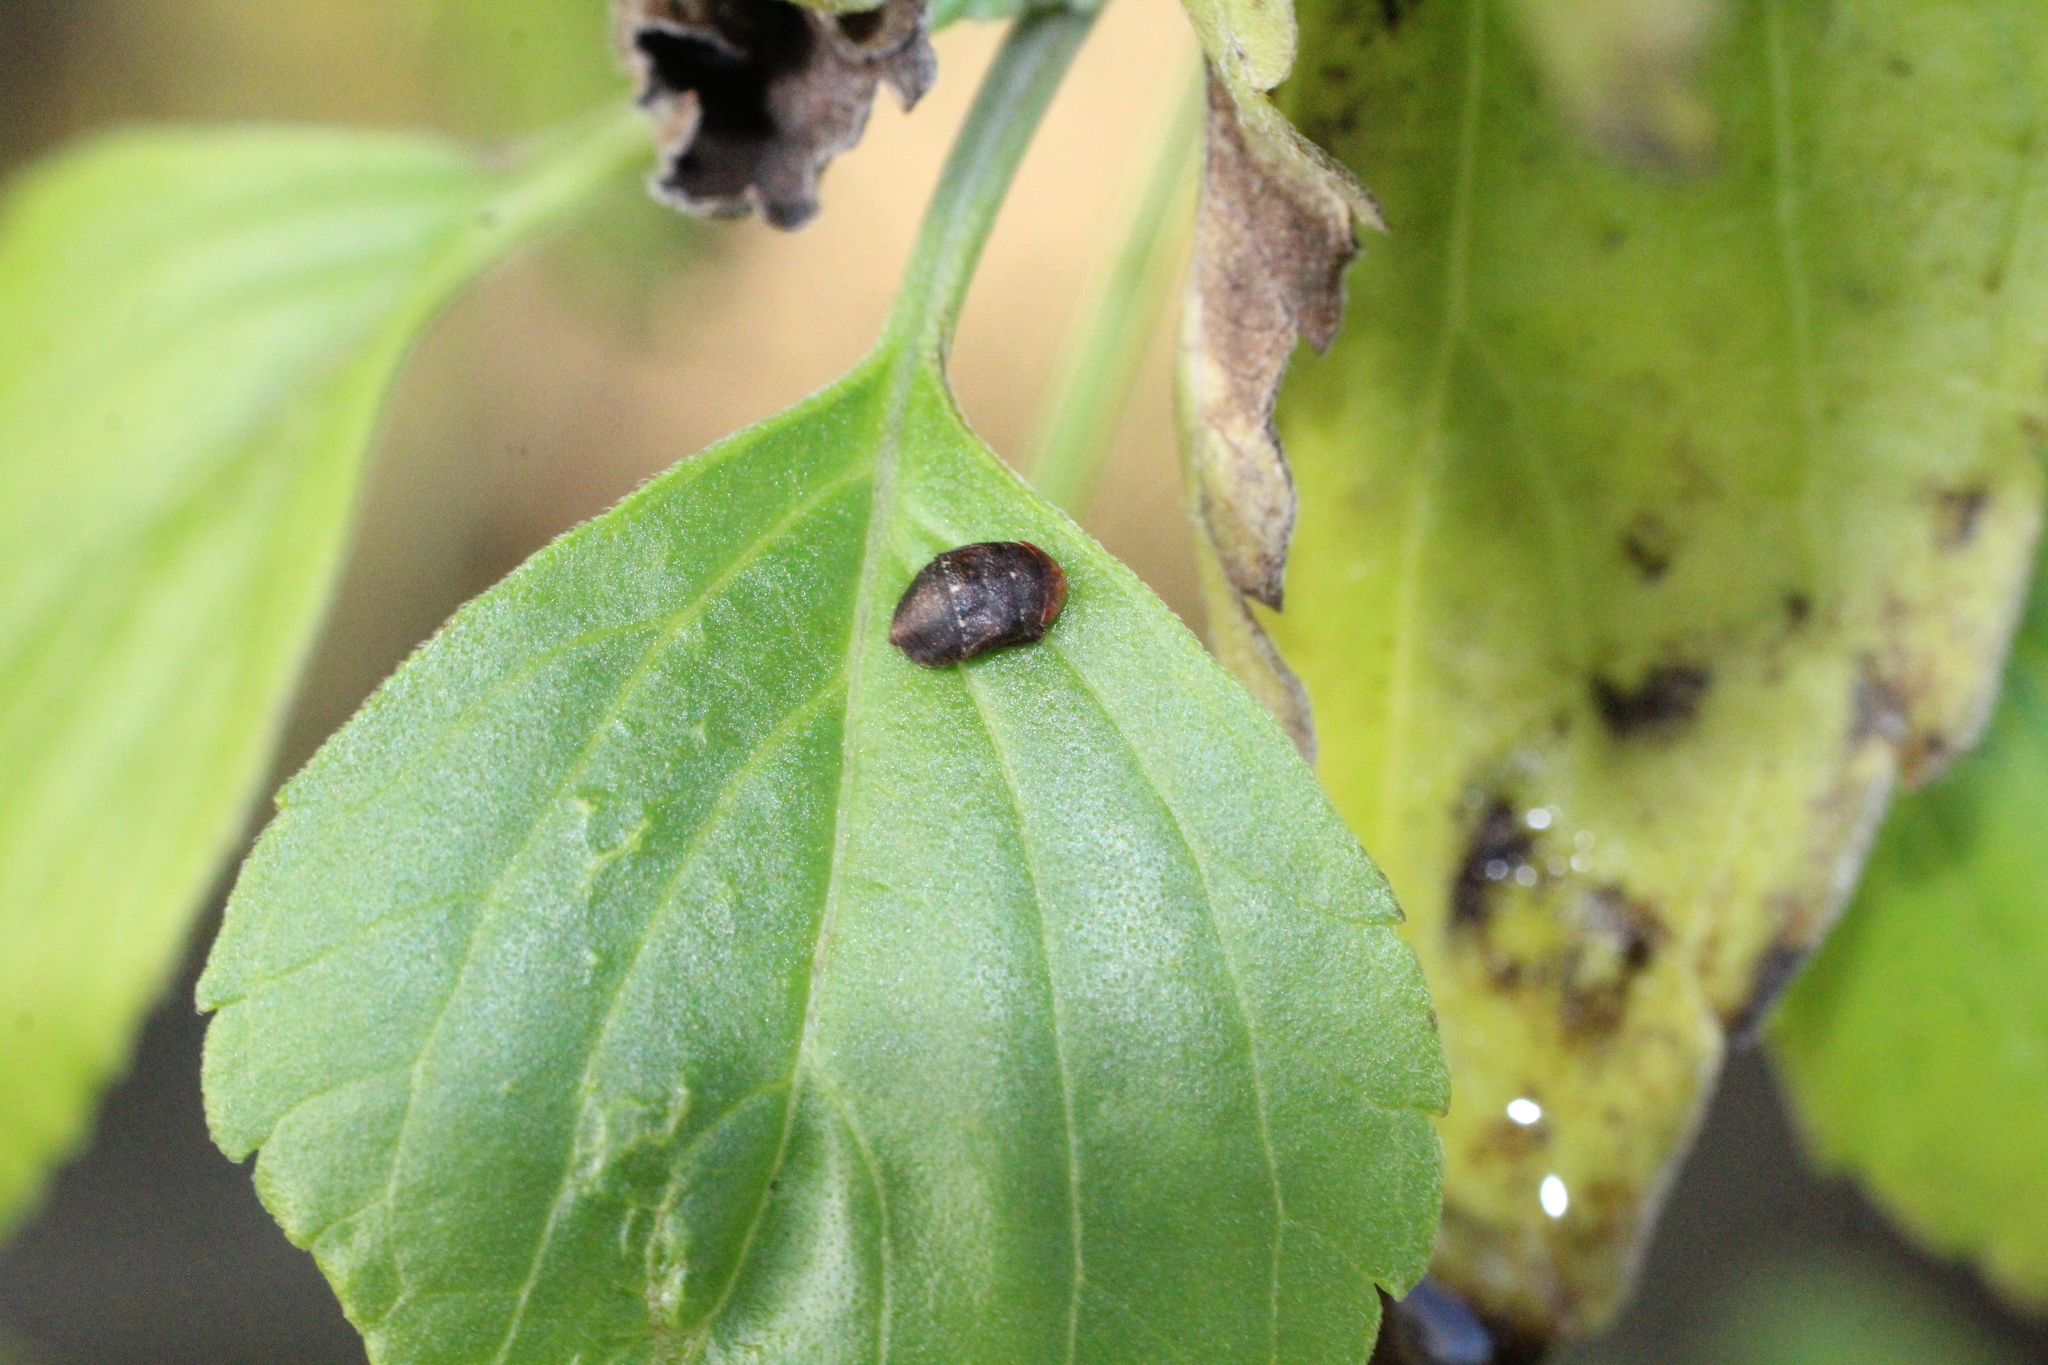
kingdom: Animalia
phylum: Arthropoda
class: Insecta
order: Hemiptera
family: Cicadellidae
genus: Penthimia
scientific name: Penthimia nigra
